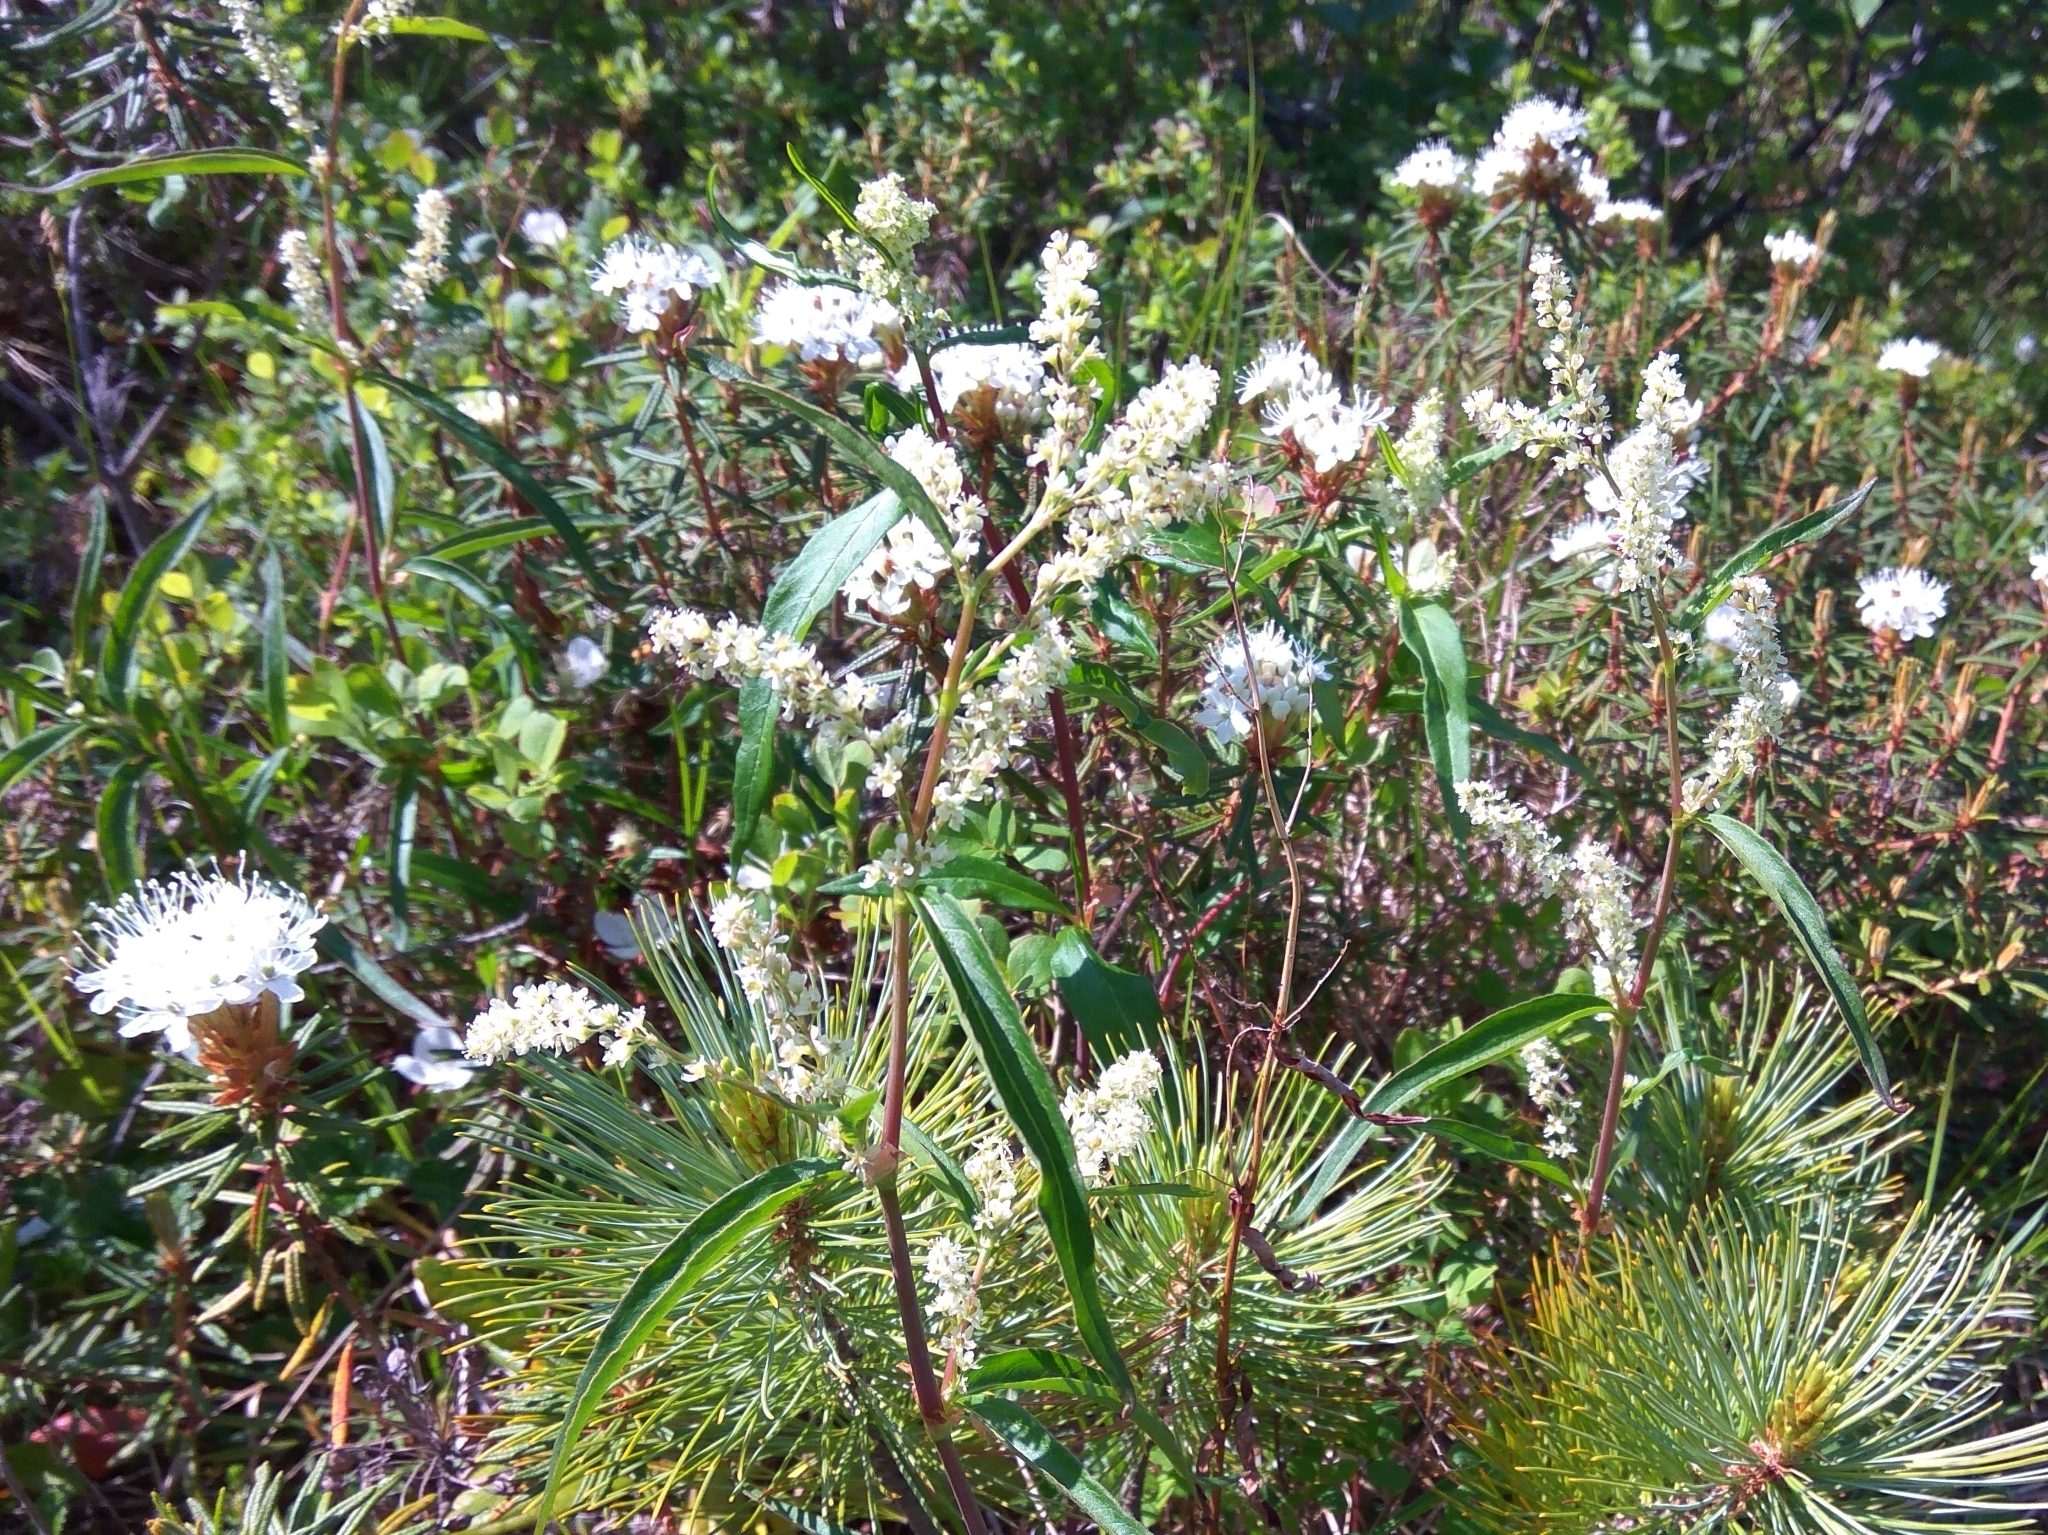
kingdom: Plantae
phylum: Tracheophyta
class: Magnoliopsida
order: Ericales
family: Ericaceae
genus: Rhododendron
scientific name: Rhododendron tomentosum
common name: Marsh labrador tea
